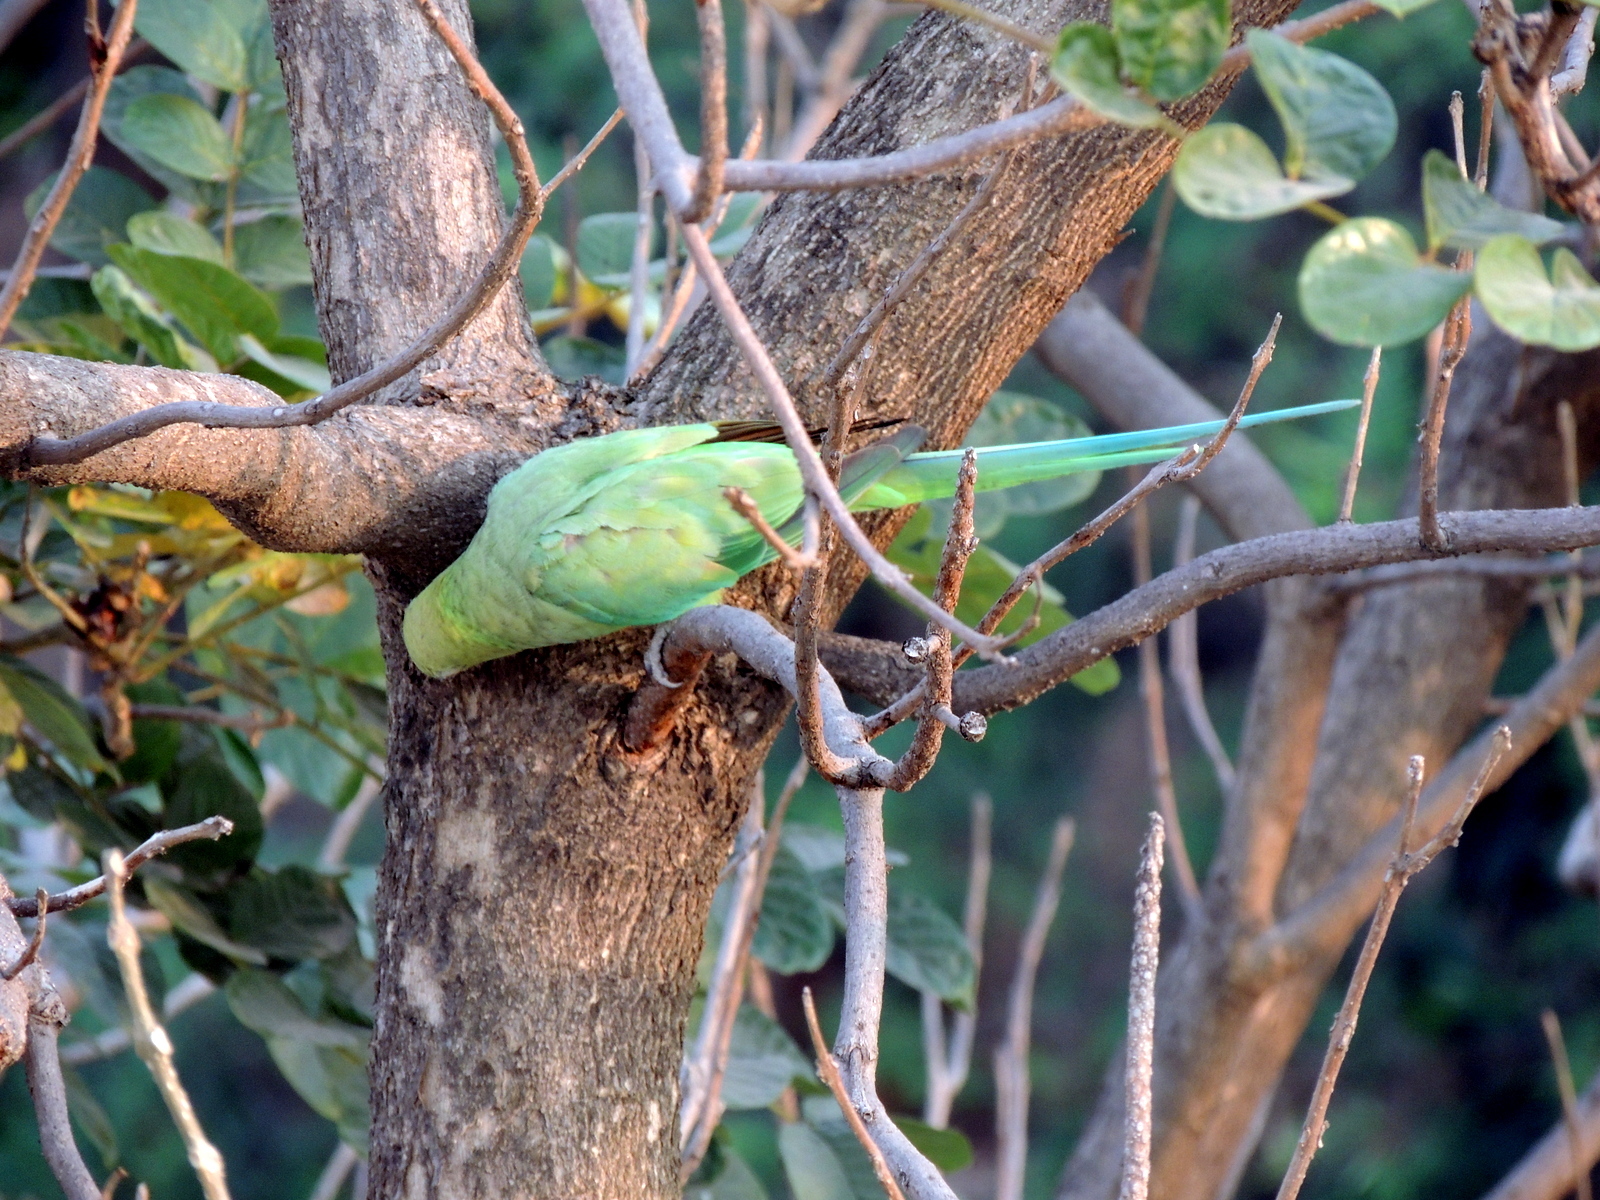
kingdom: Animalia
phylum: Chordata
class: Aves
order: Psittaciformes
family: Psittacidae
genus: Psittacula
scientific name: Psittacula krameri
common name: Rose-ringed parakeet
